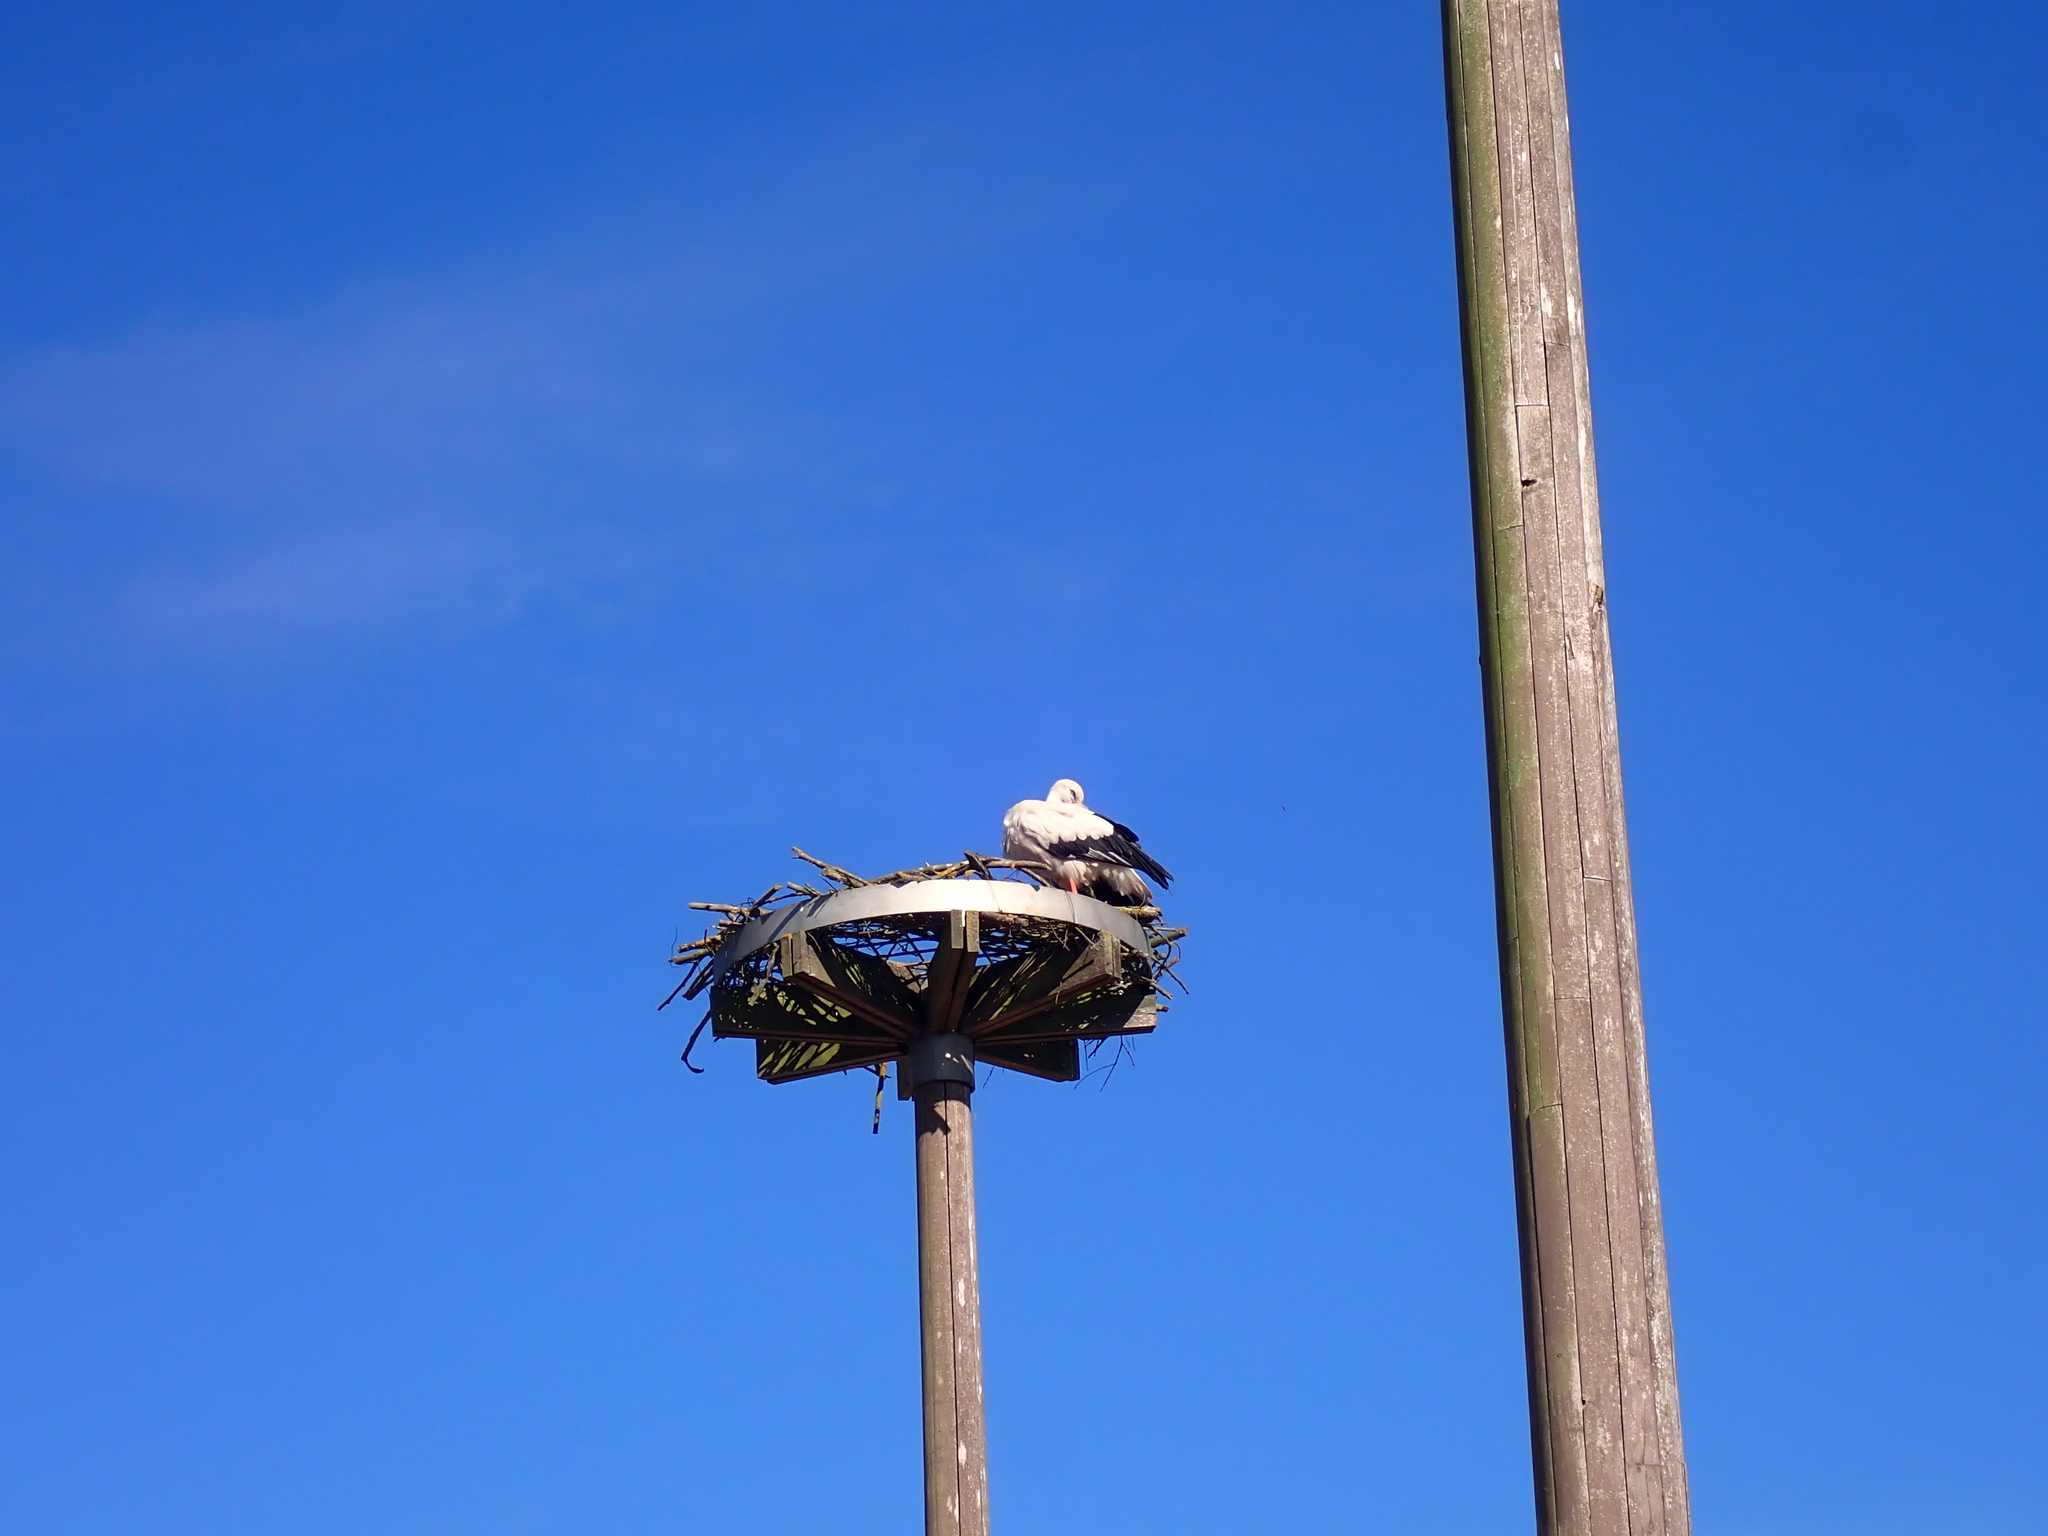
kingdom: Animalia
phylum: Chordata
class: Aves
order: Ciconiiformes
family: Ciconiidae
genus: Ciconia
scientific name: Ciconia ciconia
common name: White stork
